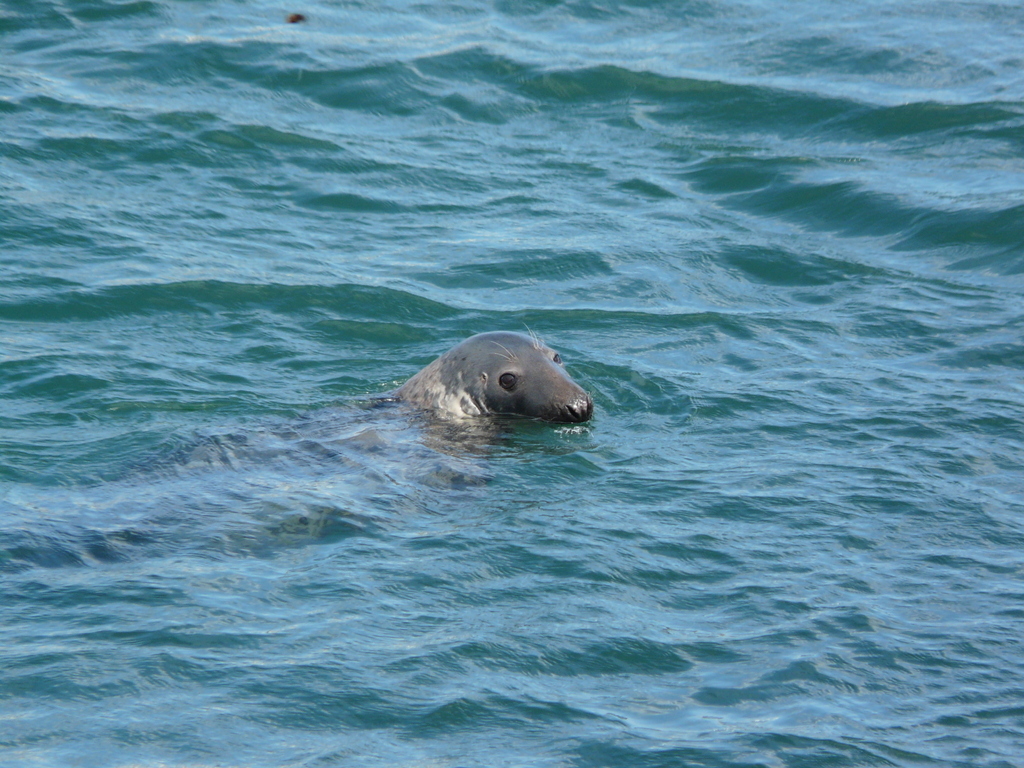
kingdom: Animalia
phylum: Chordata
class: Mammalia
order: Carnivora
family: Phocidae
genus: Halichoerus
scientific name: Halichoerus grypus
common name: Grey seal
